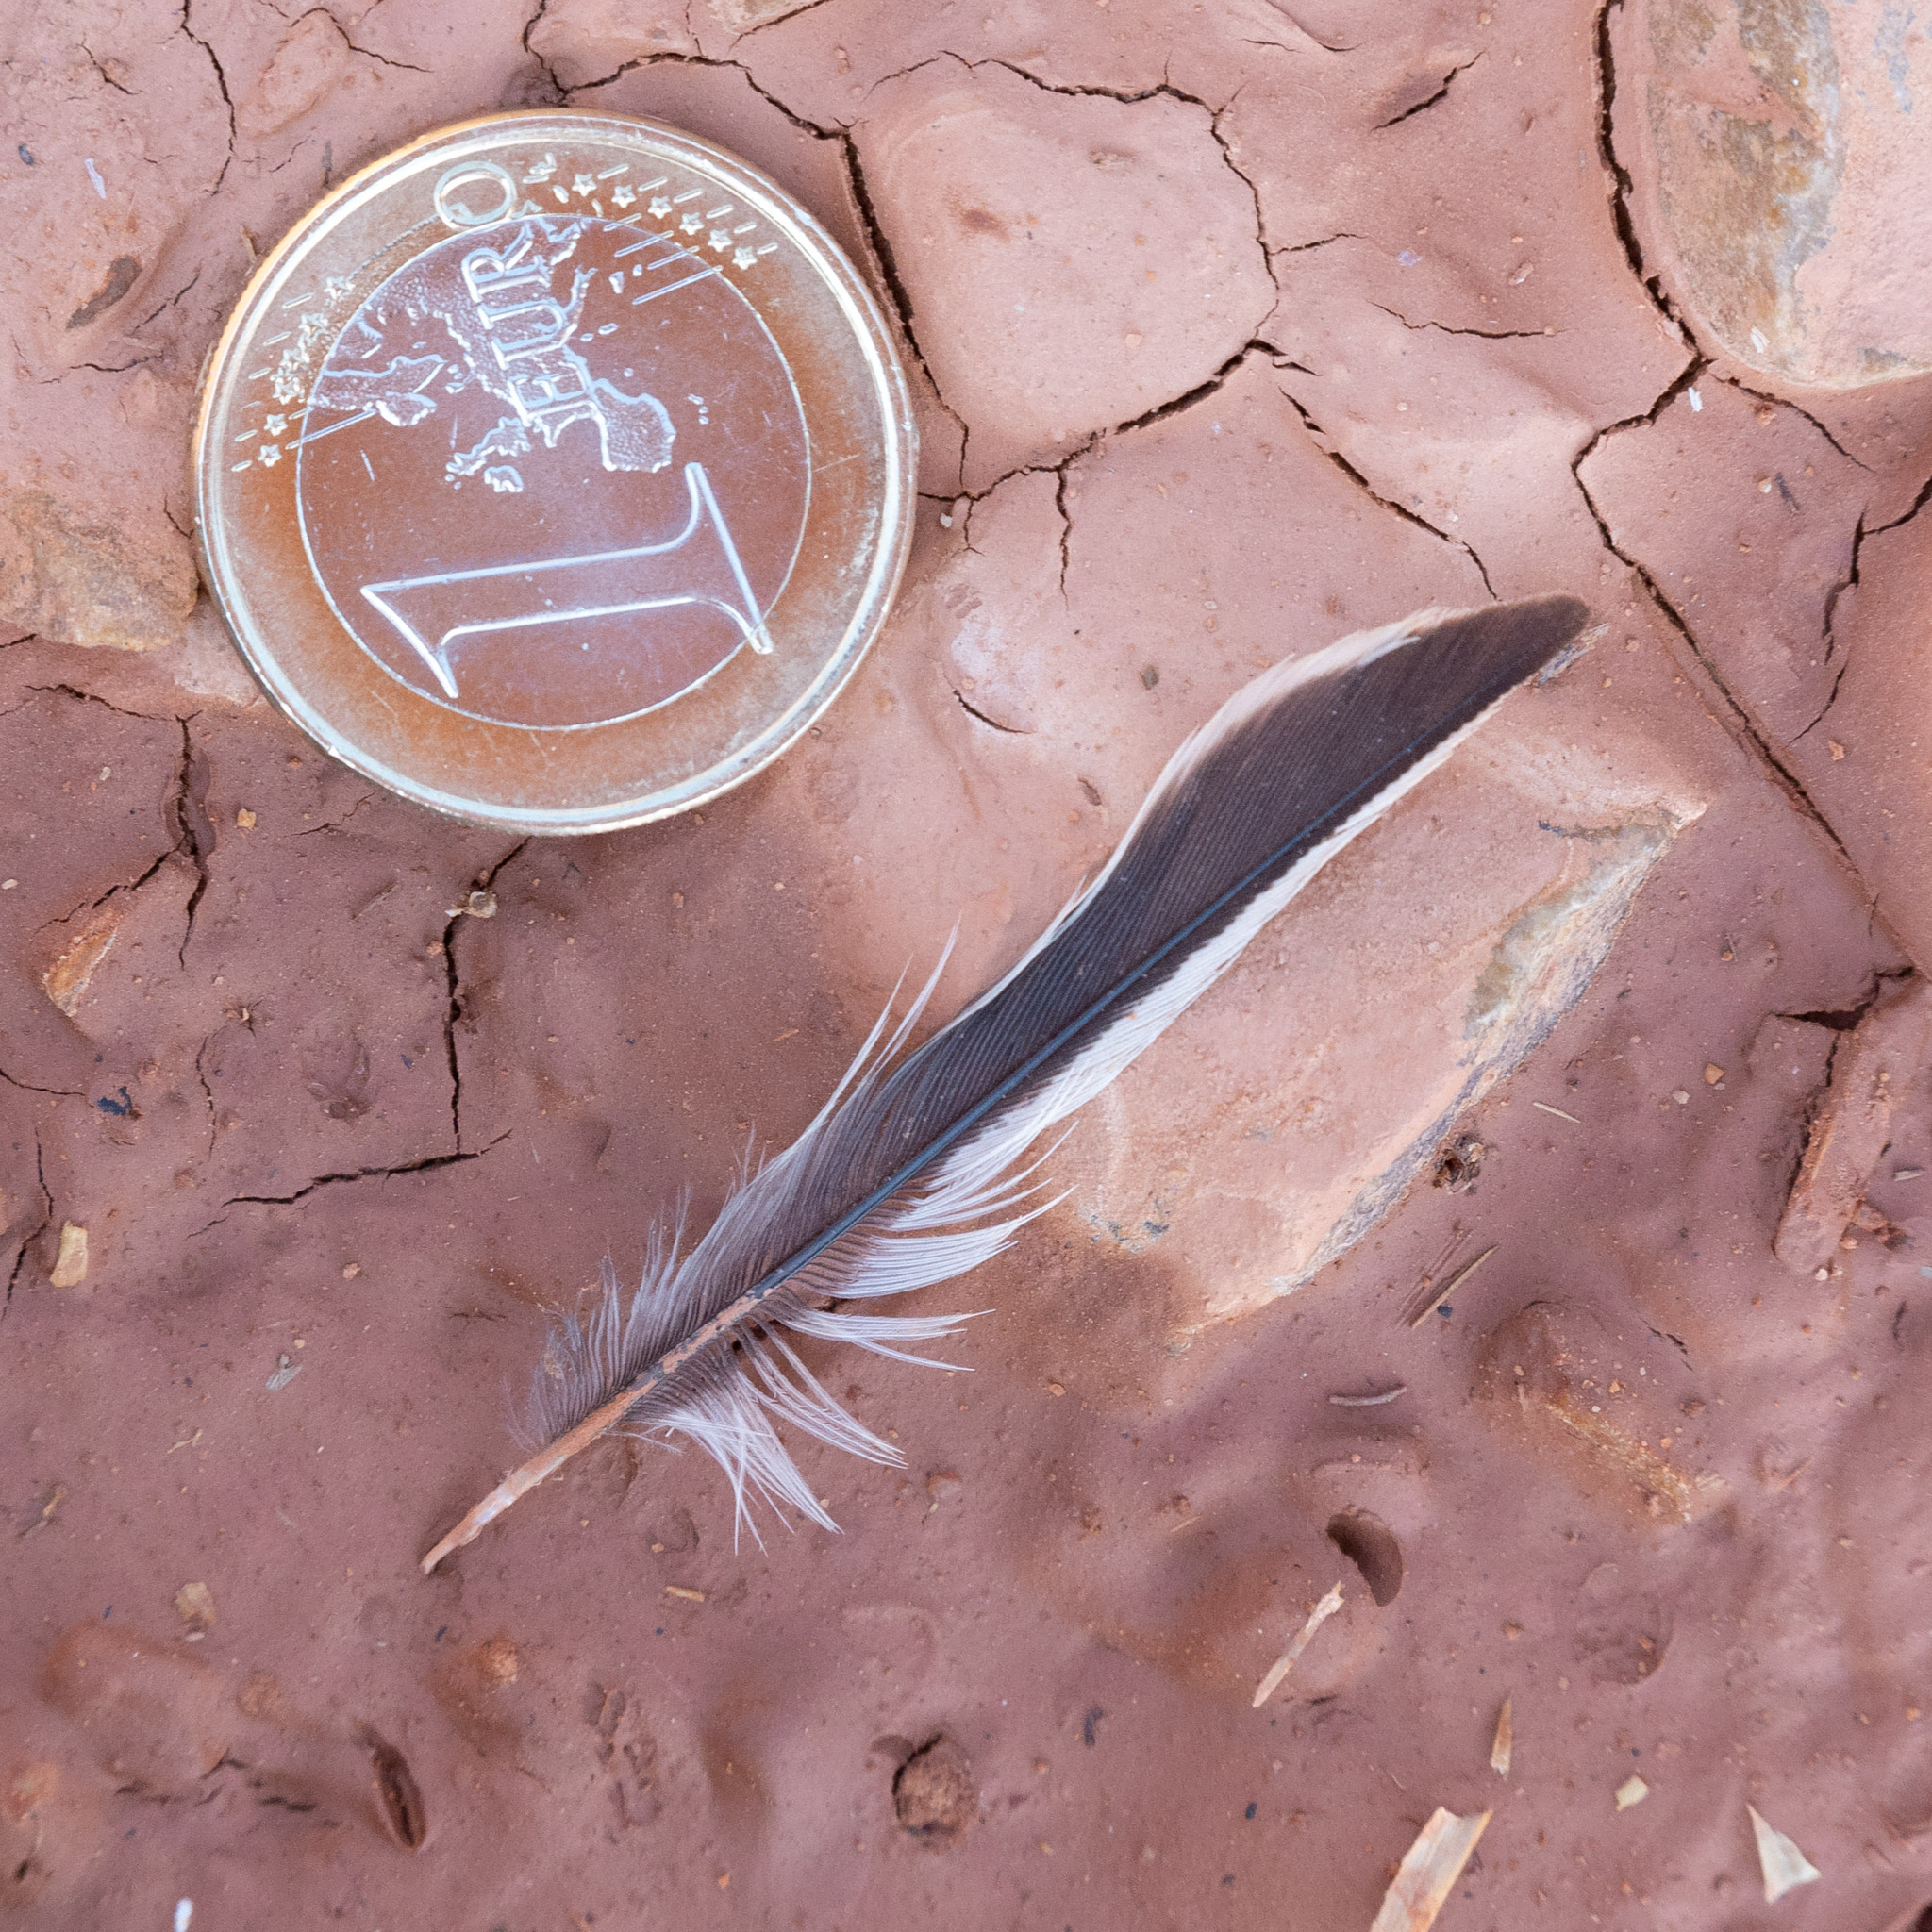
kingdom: Animalia
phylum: Chordata
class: Aves
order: Passeriformes
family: Fringillidae
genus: Linaria
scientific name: Linaria cannabina
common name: Common linnet
